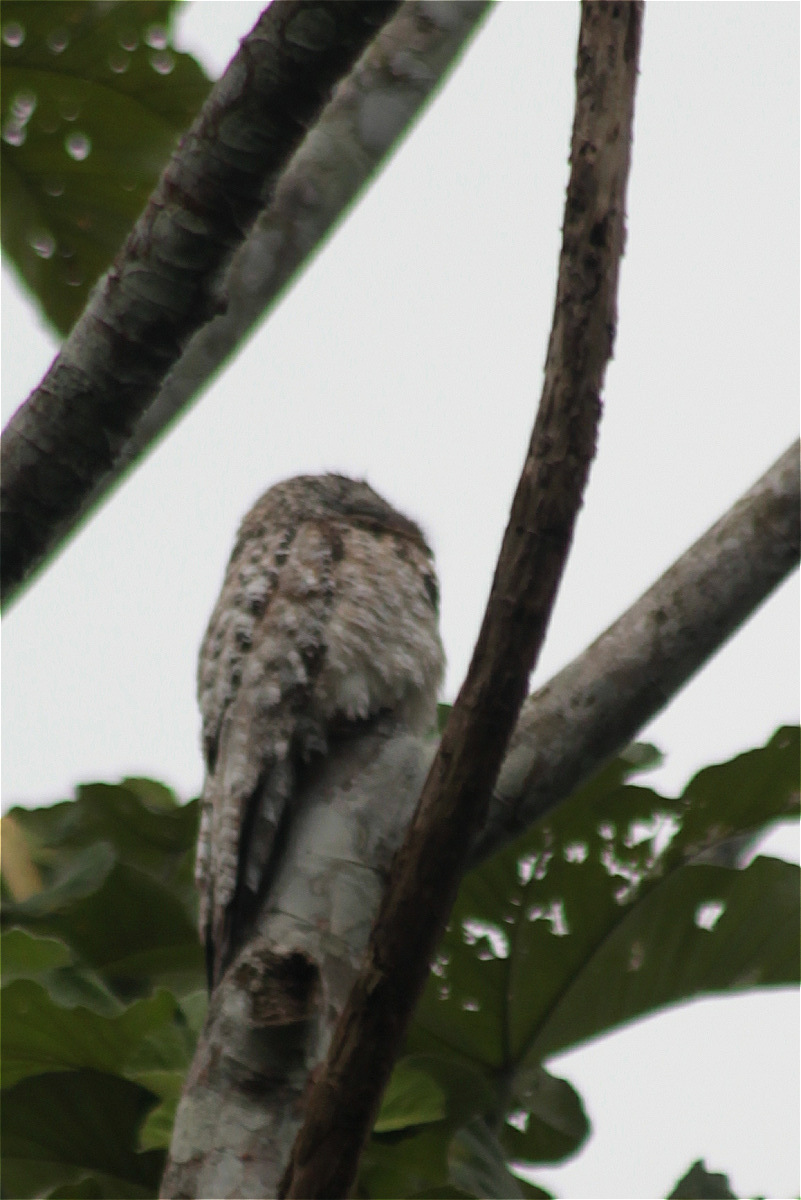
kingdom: Animalia
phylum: Chordata
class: Aves
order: Nyctibiiformes
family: Nyctibiidae
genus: Nyctibius
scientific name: Nyctibius grandis
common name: Great potoo
